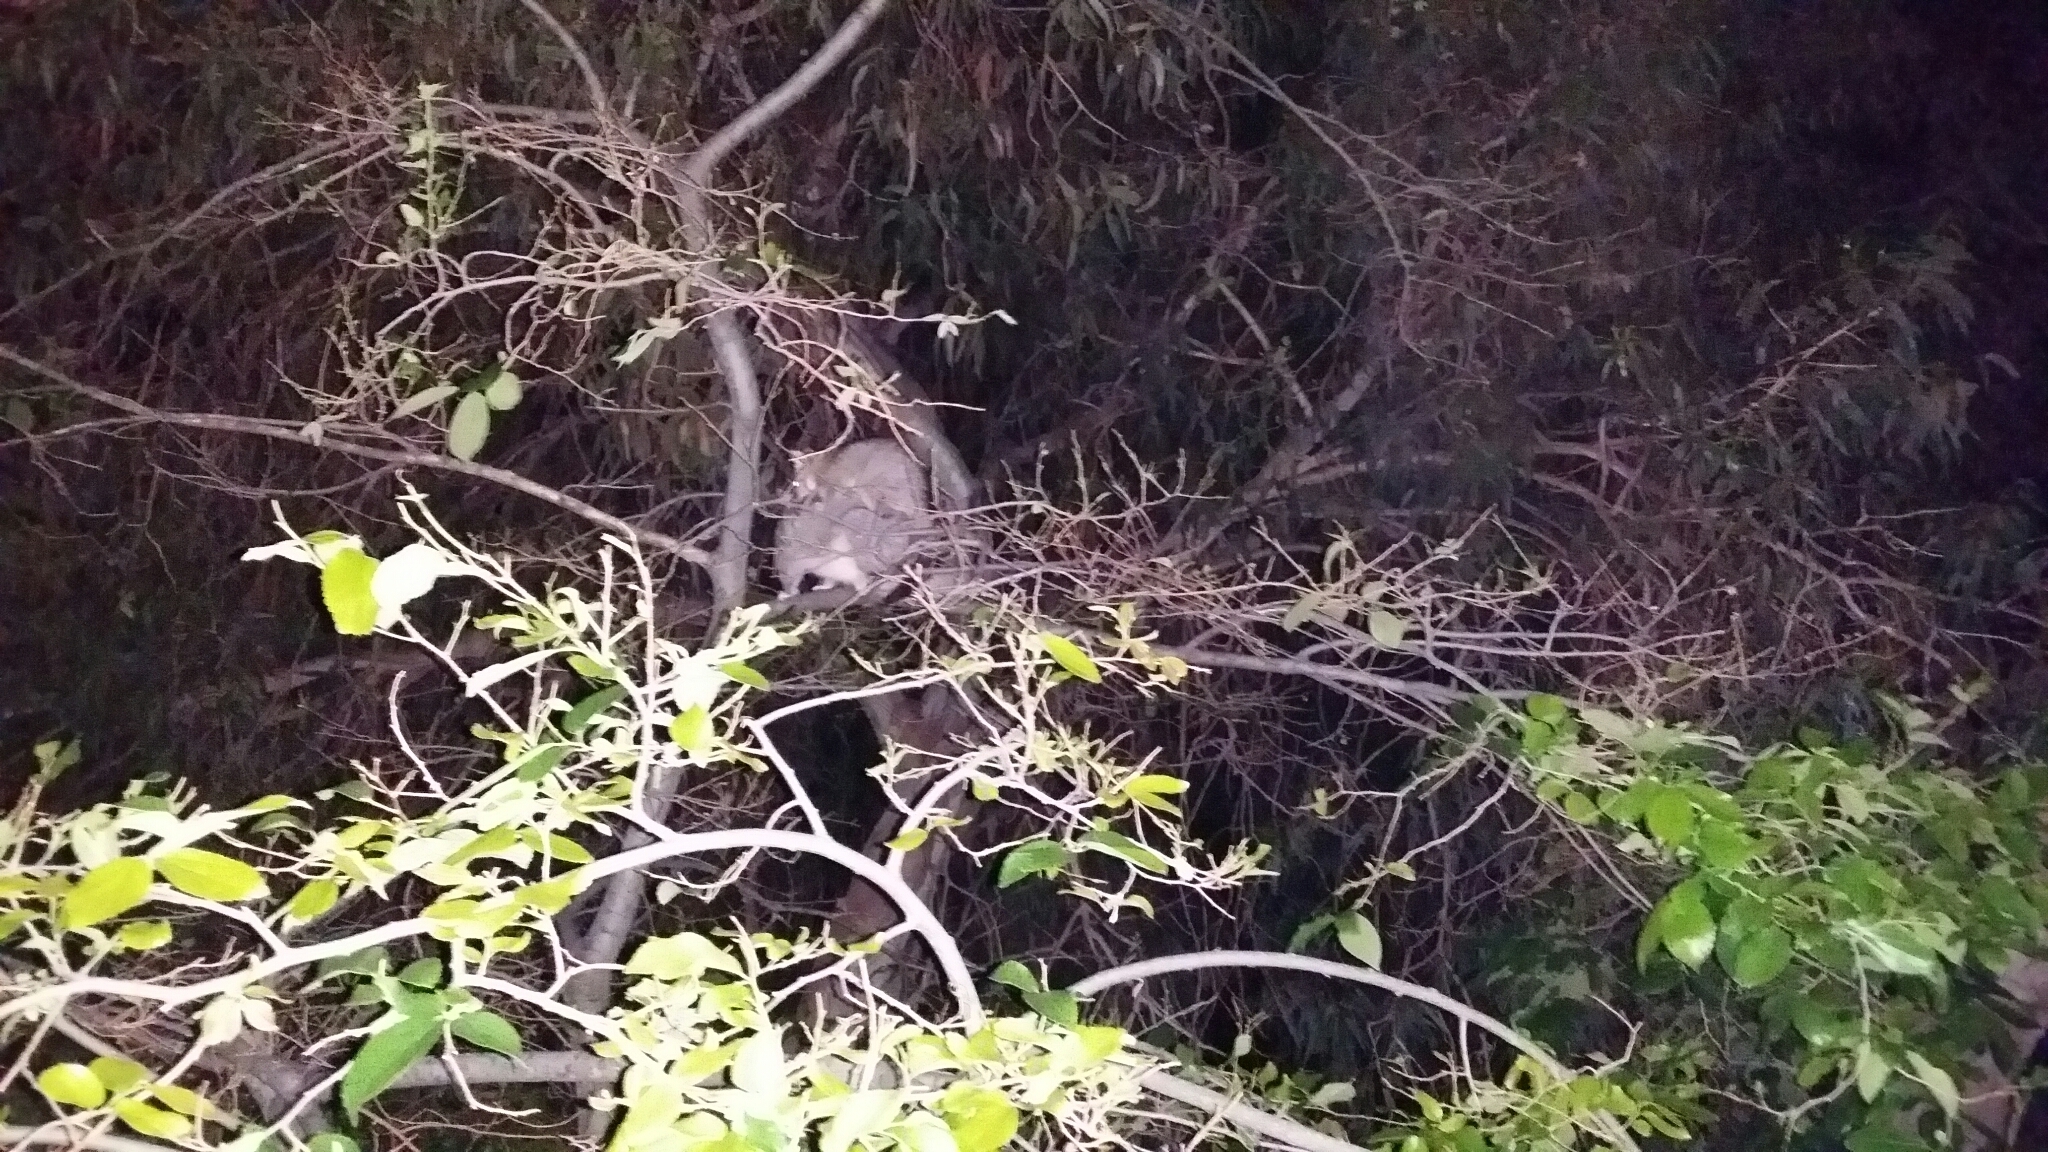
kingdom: Animalia
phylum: Chordata
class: Mammalia
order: Diprotodontia
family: Phalangeridae
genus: Trichosurus
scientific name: Trichosurus vulpecula
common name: Common brushtail
